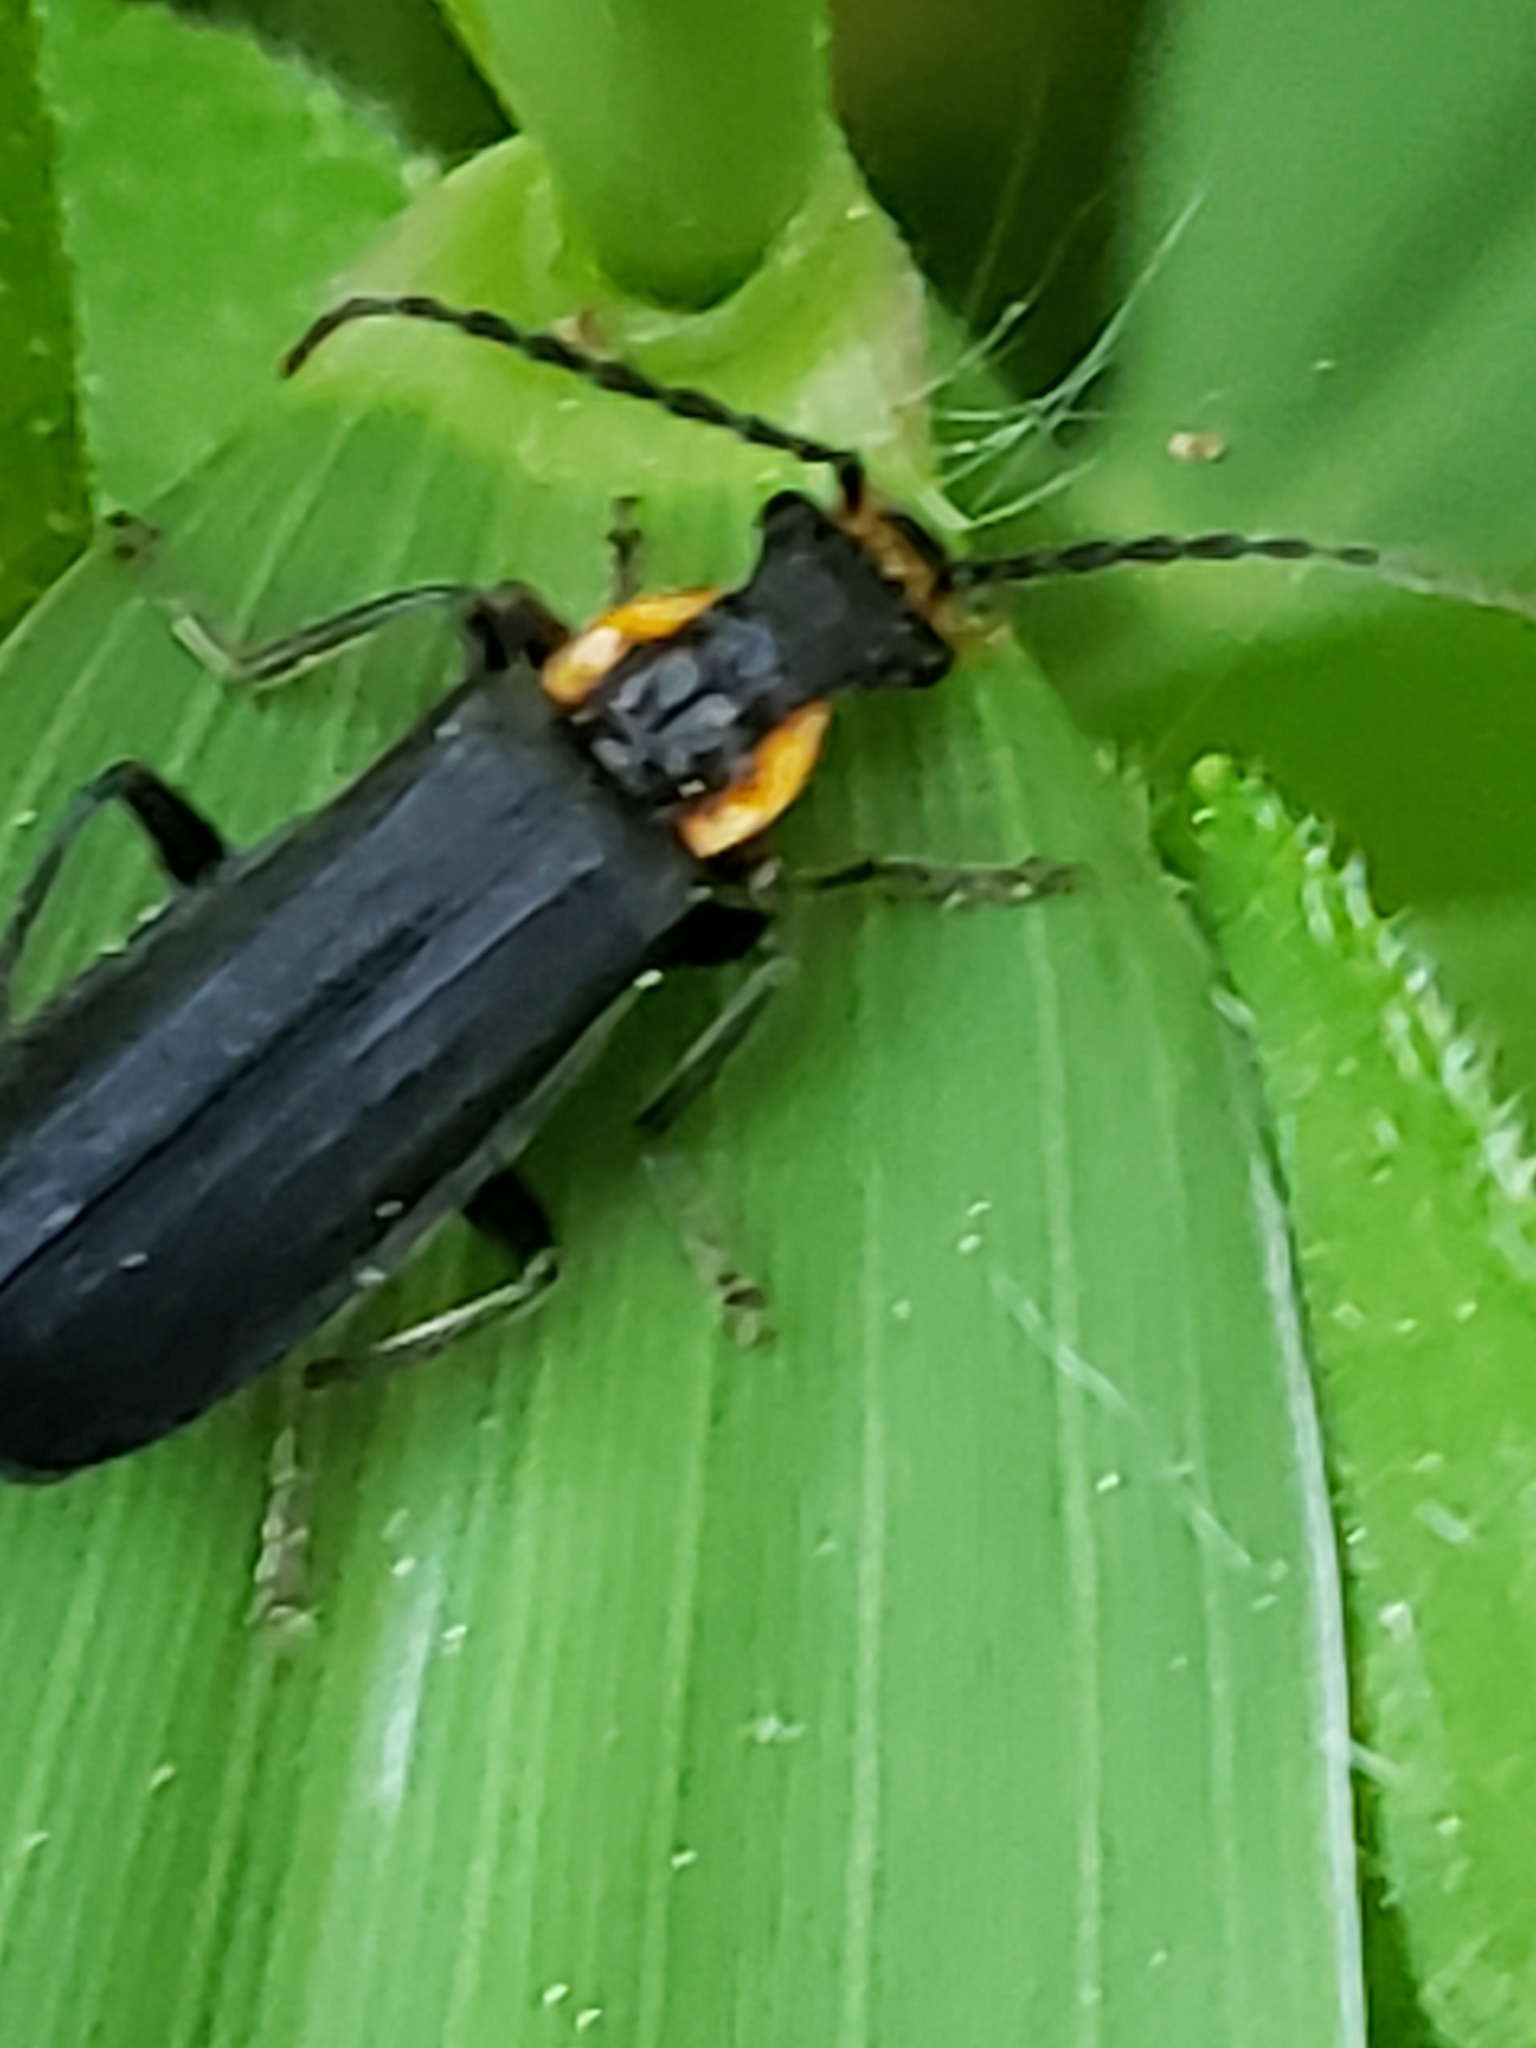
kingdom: Animalia
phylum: Arthropoda
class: Insecta
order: Coleoptera
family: Cantharidae
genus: Podabrus
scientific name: Podabrus rugosulus
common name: Wrinkled soldier beetle
